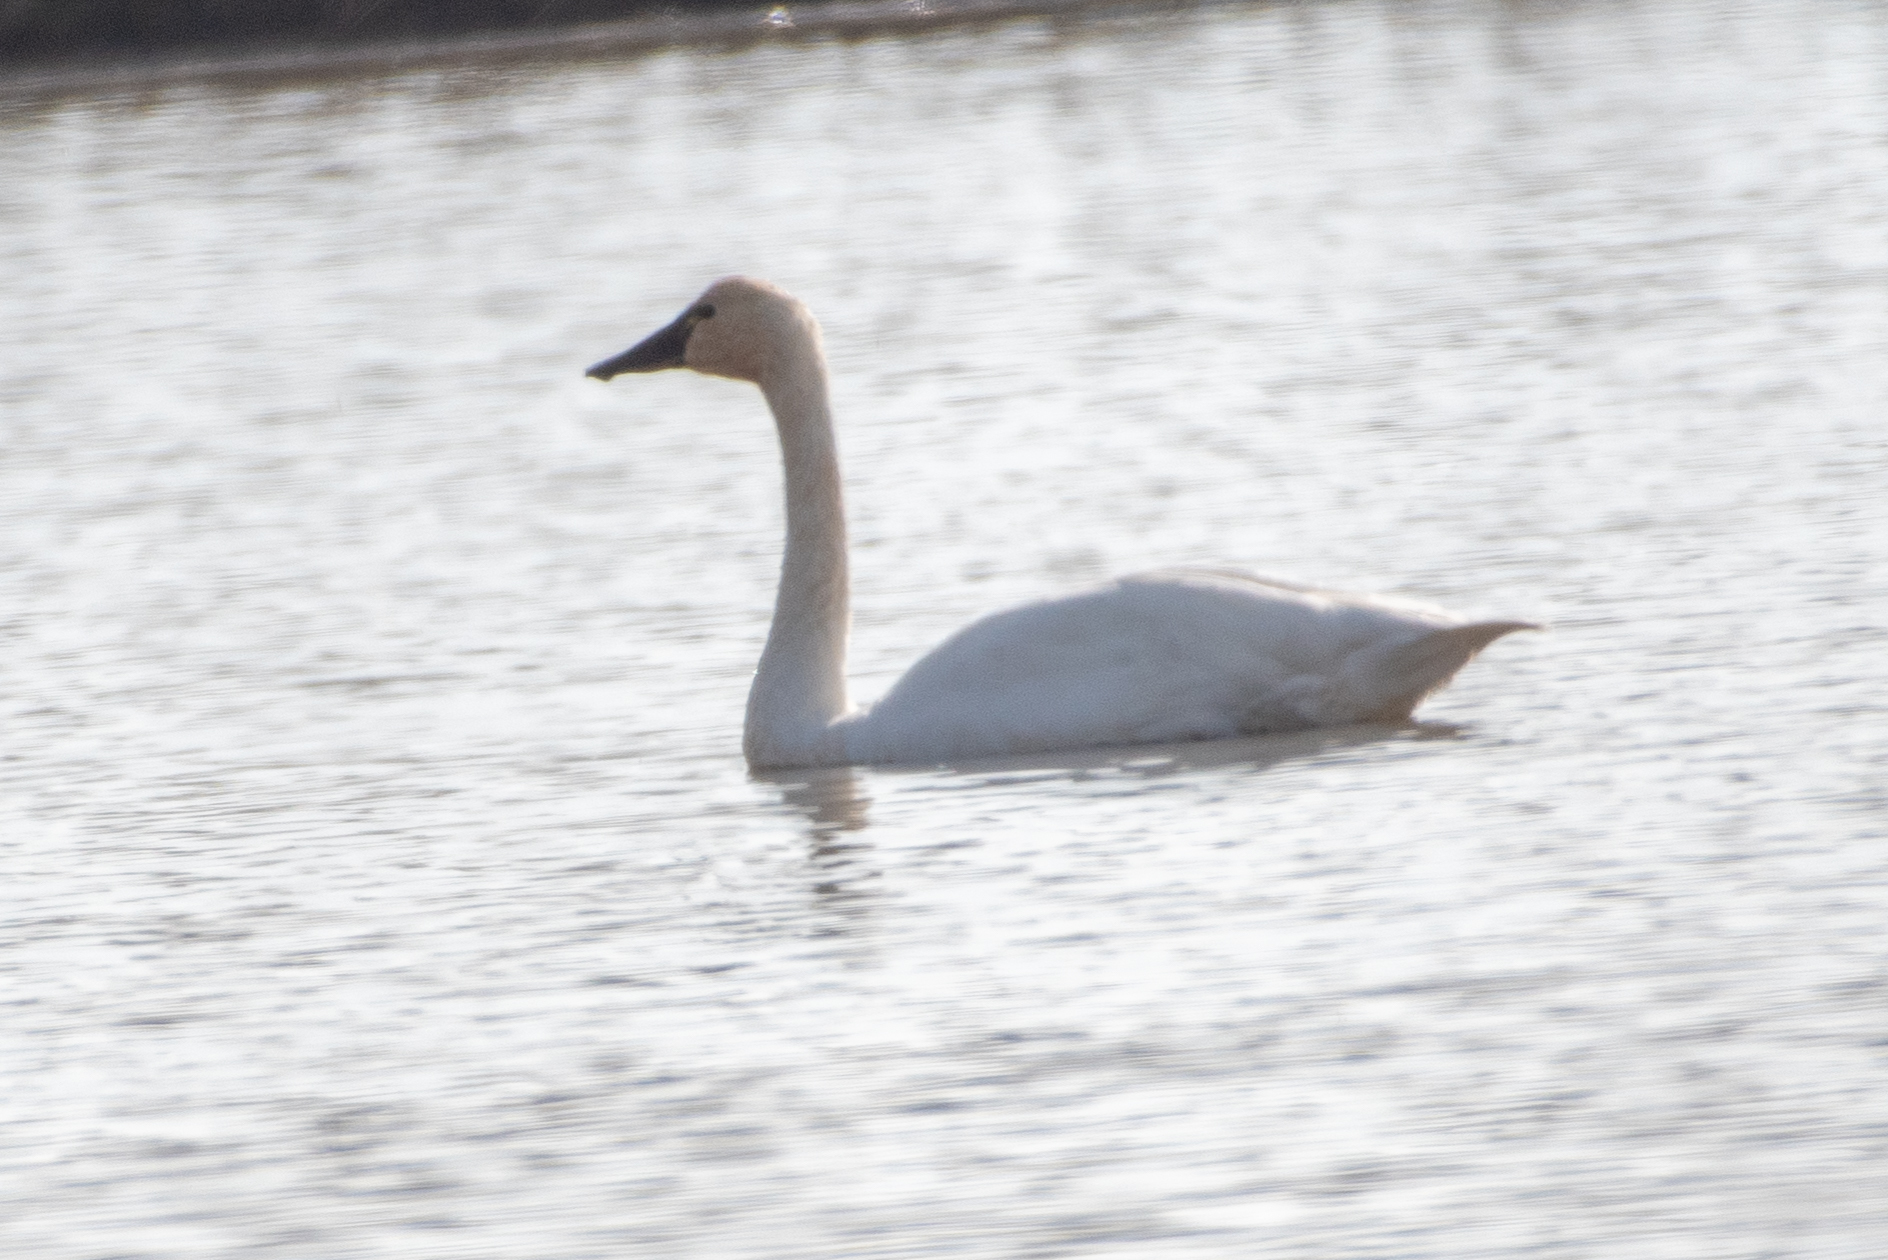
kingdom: Animalia
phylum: Chordata
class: Aves
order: Anseriformes
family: Anatidae
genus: Cygnus
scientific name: Cygnus columbianus
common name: Tundra swan
